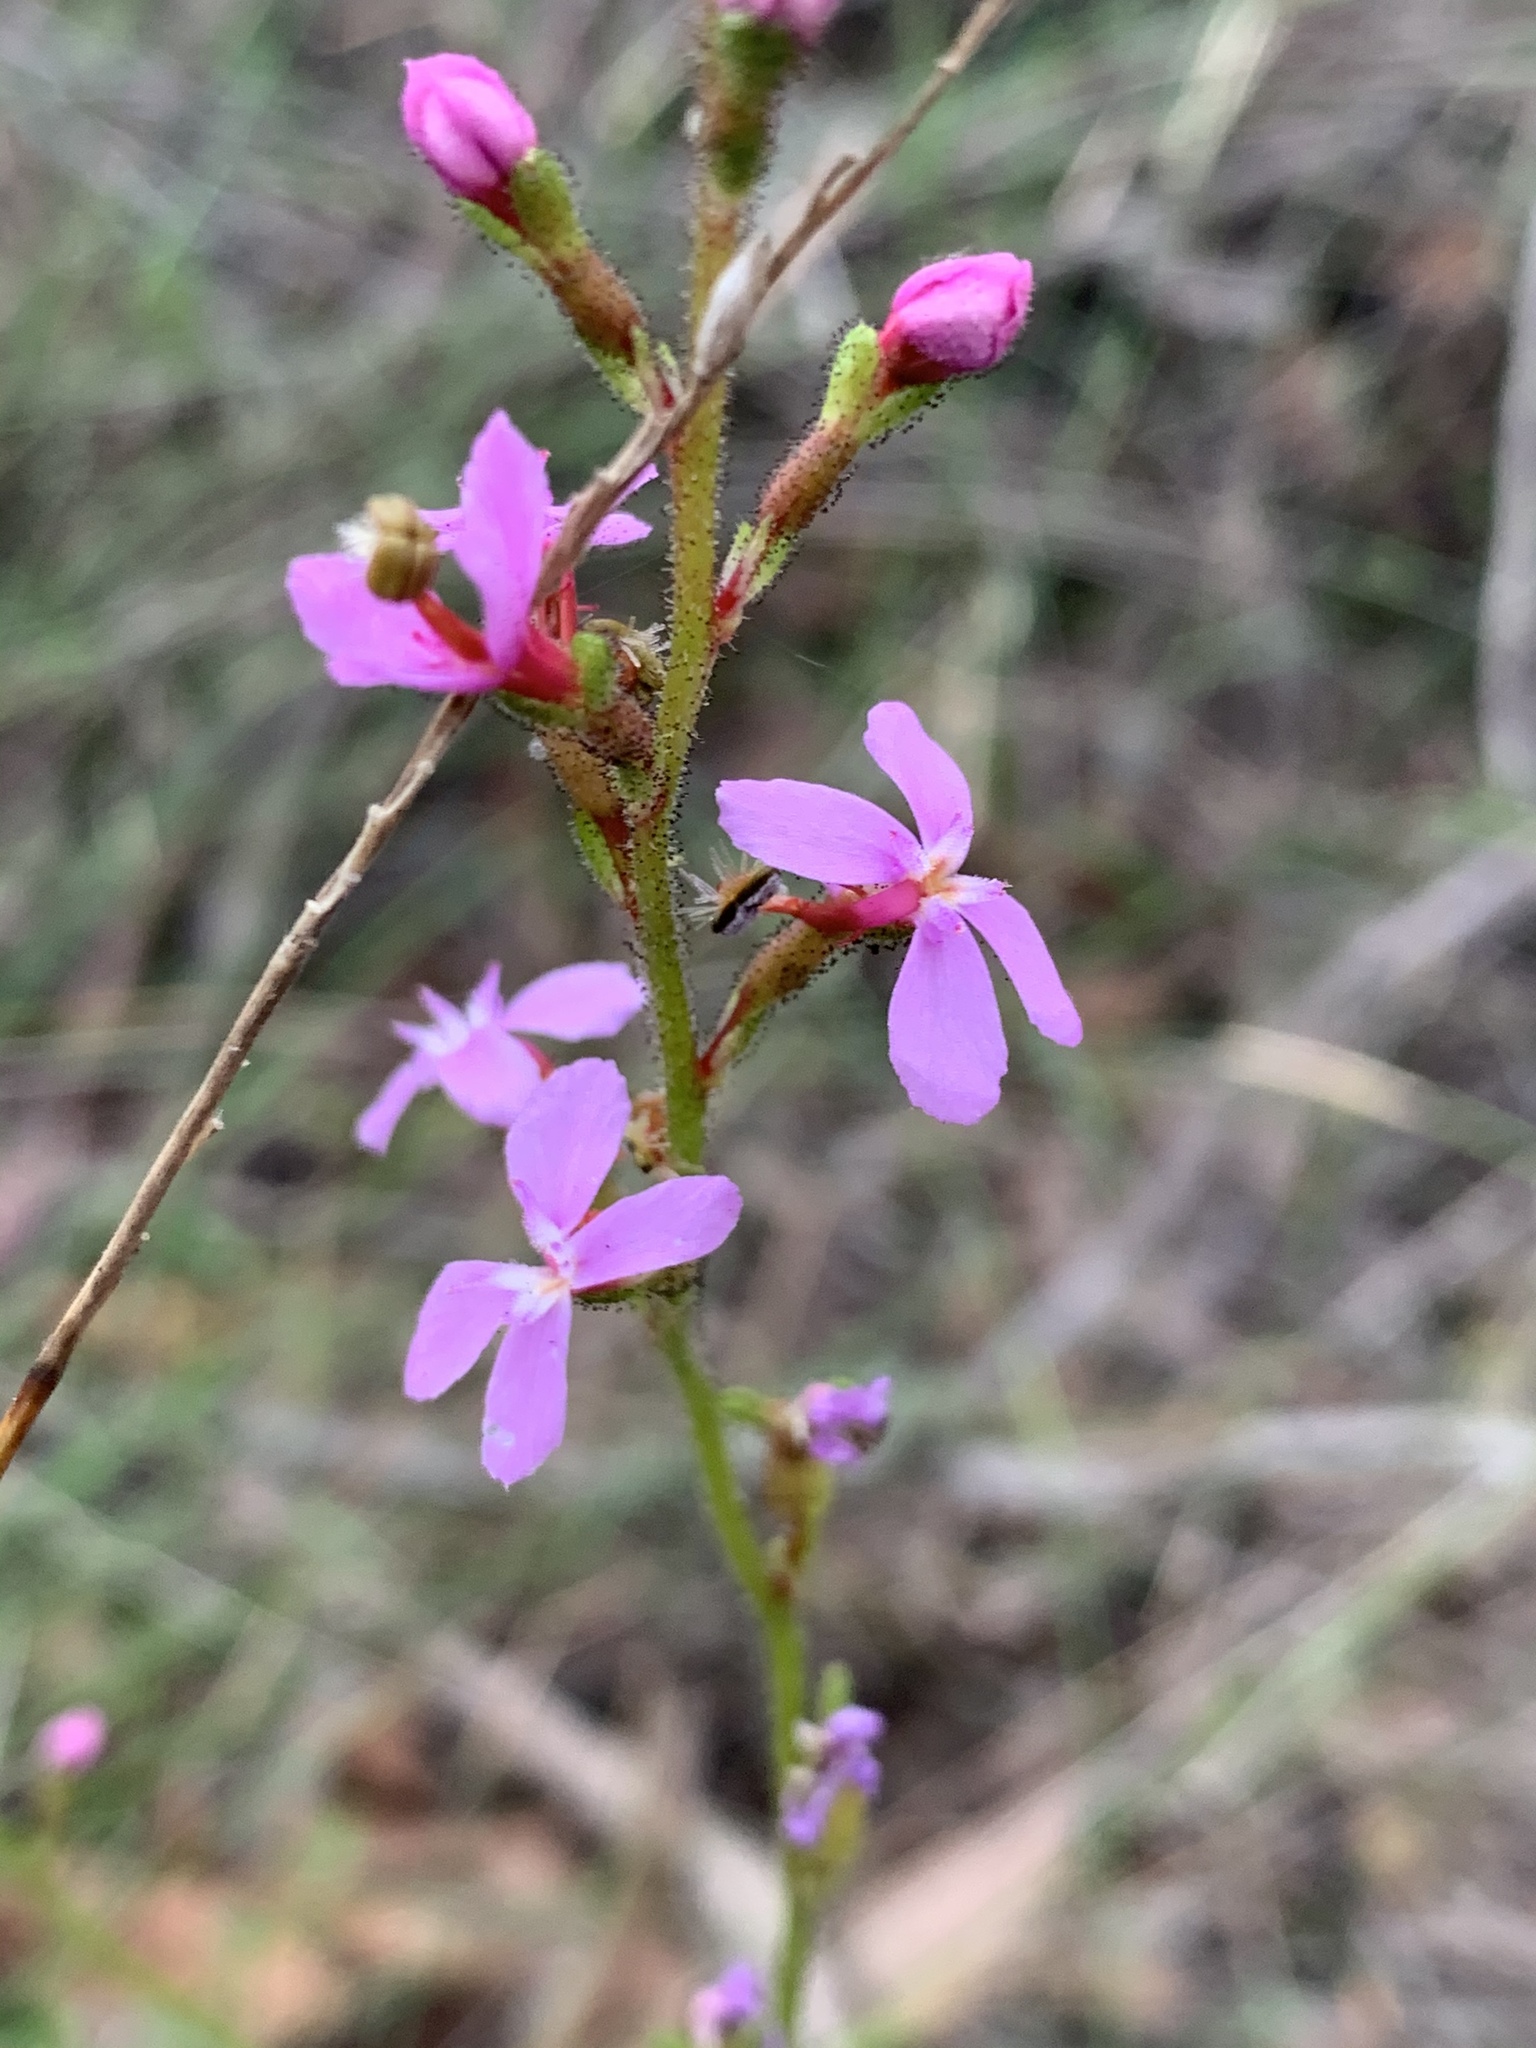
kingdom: Plantae
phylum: Tracheophyta
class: Magnoliopsida
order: Asterales
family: Stylidiaceae
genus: Stylidium
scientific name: Stylidium graminifolium
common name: Grass triggerplant
